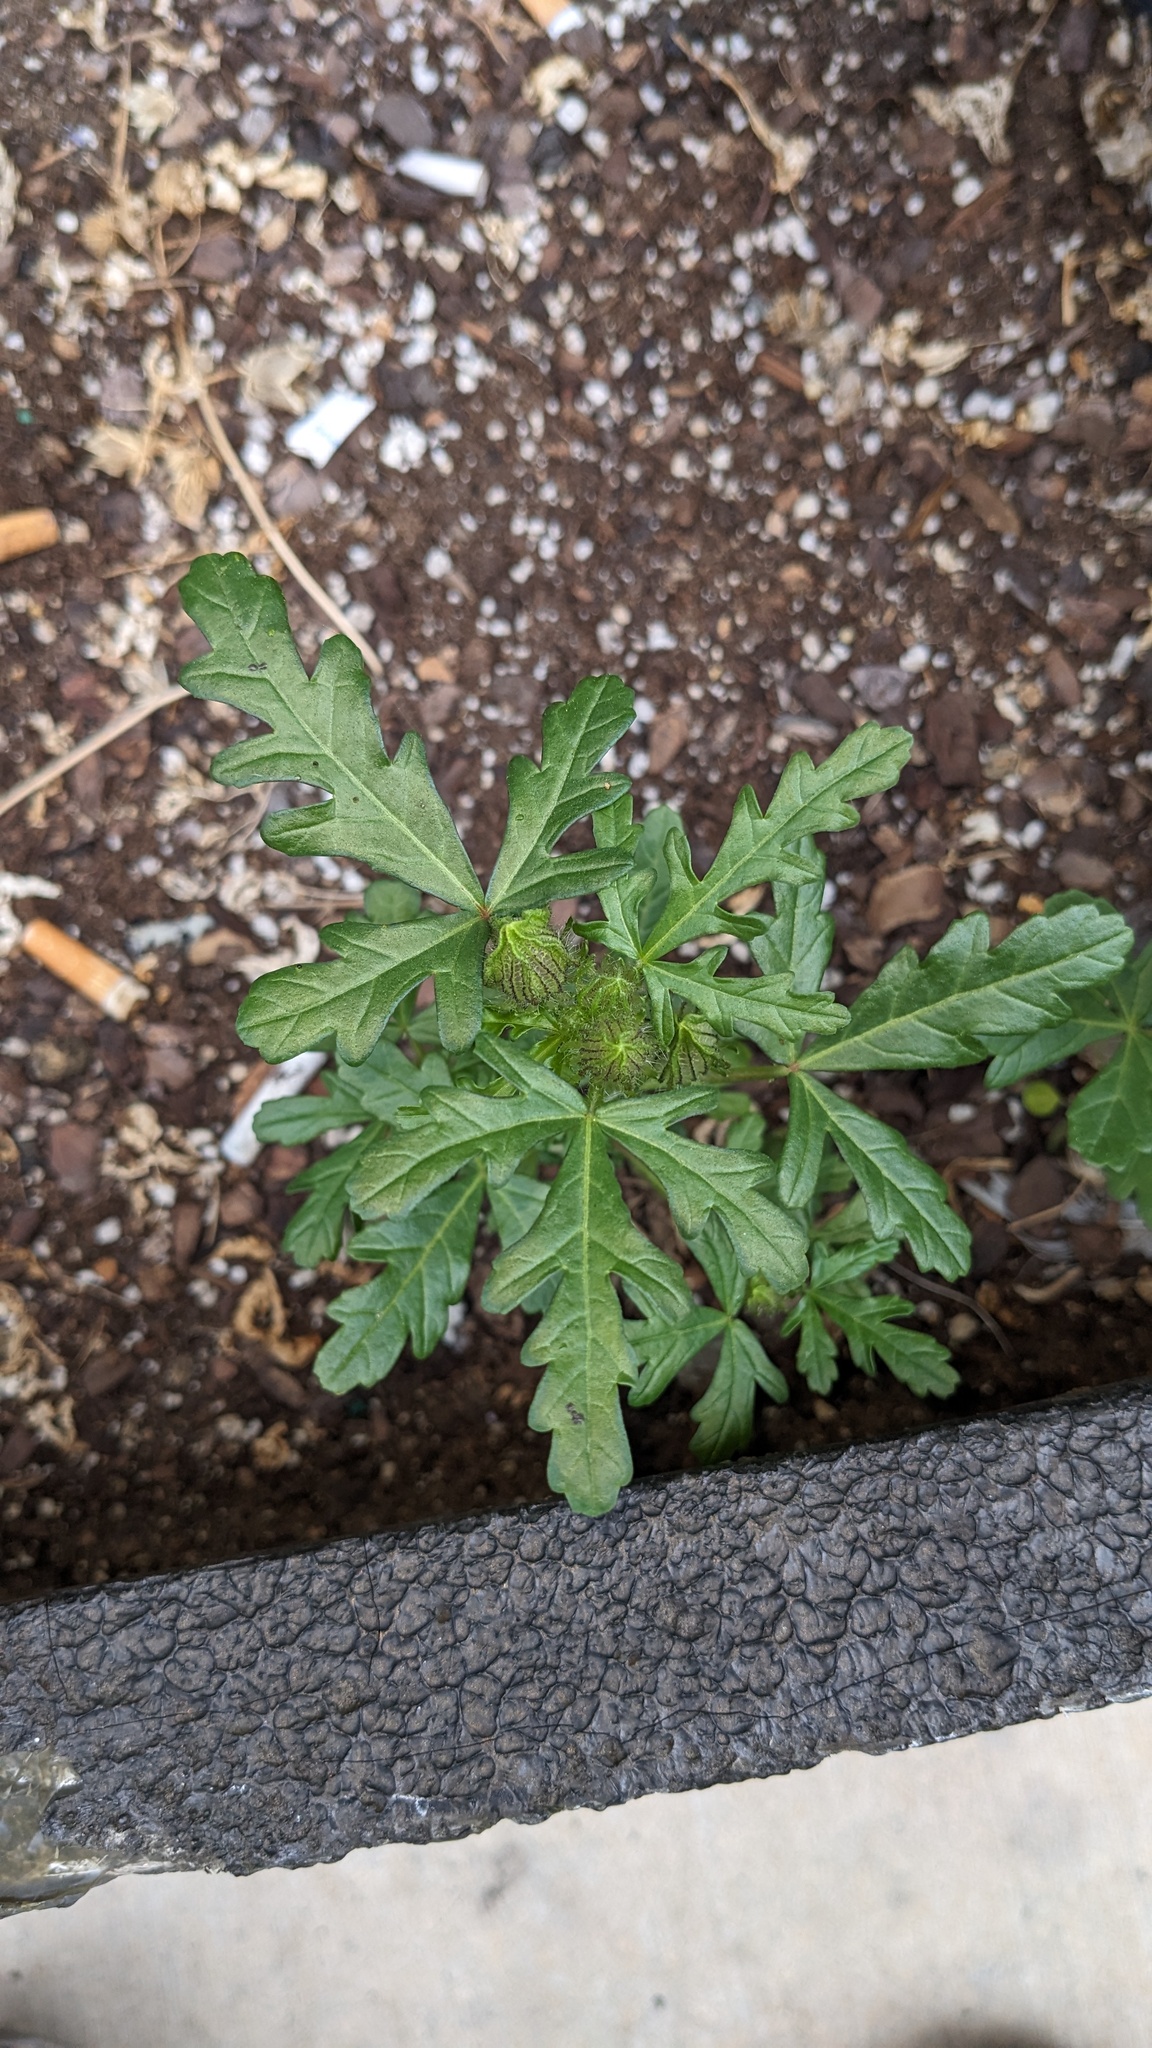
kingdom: Plantae
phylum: Tracheophyta
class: Magnoliopsida
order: Malvales
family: Malvaceae
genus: Hibiscus
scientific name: Hibiscus trionum
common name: Bladder ketmia
